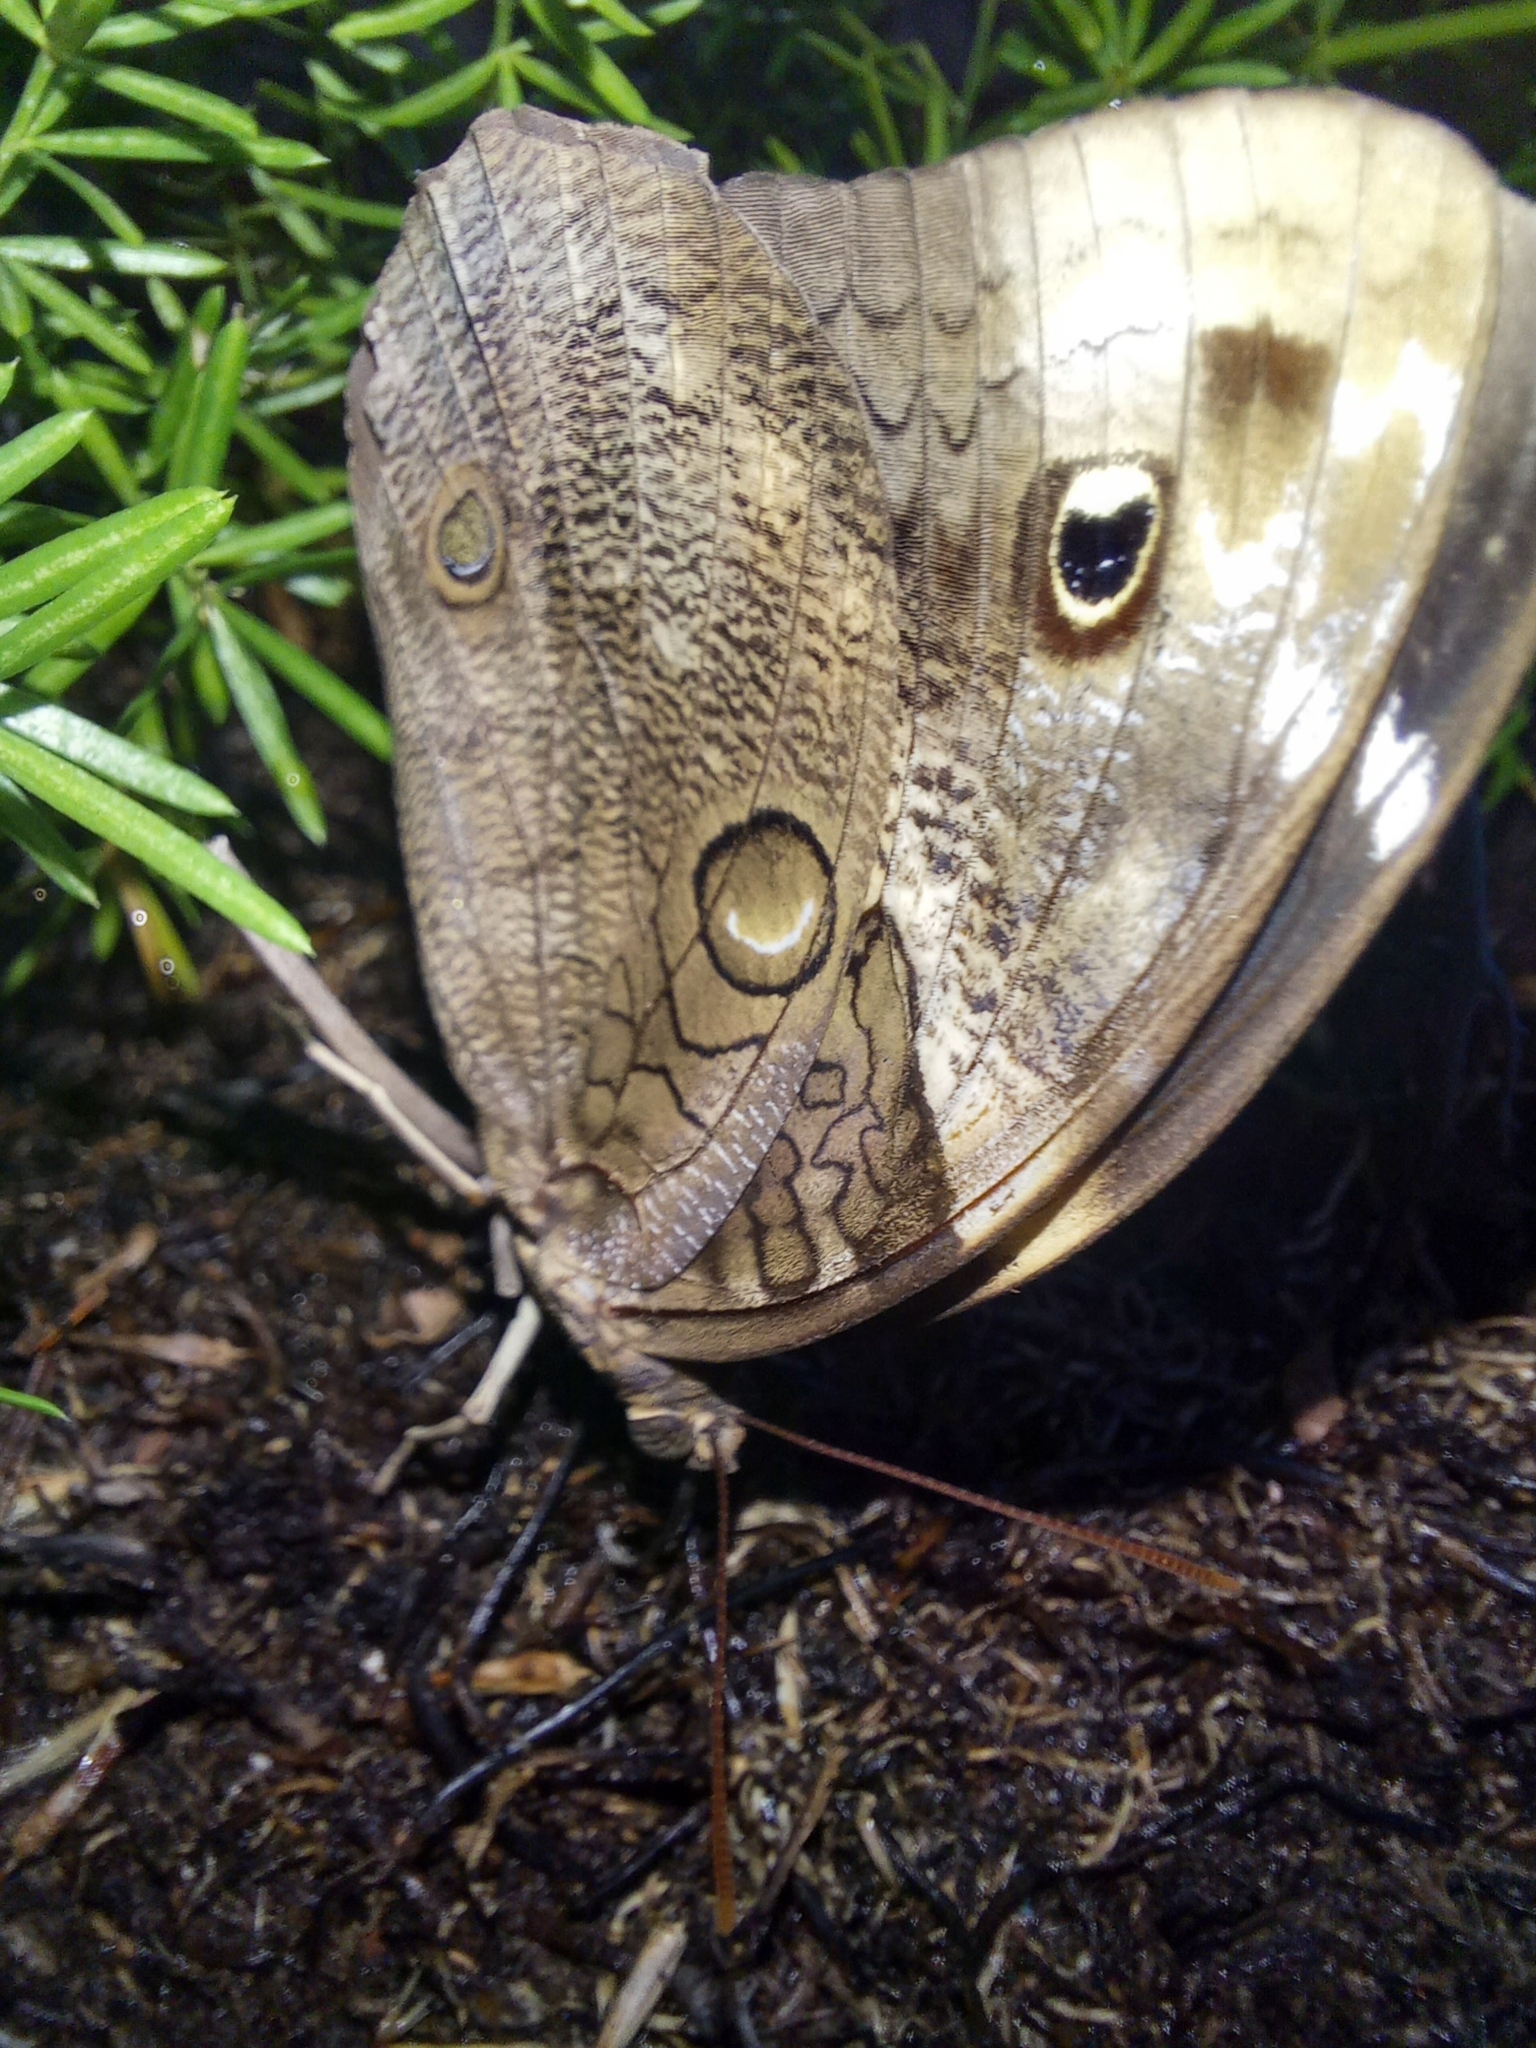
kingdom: Animalia
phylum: Arthropoda
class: Insecta
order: Lepidoptera
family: Nymphalidae
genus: Opsiphanes
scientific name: Opsiphanes invirae
